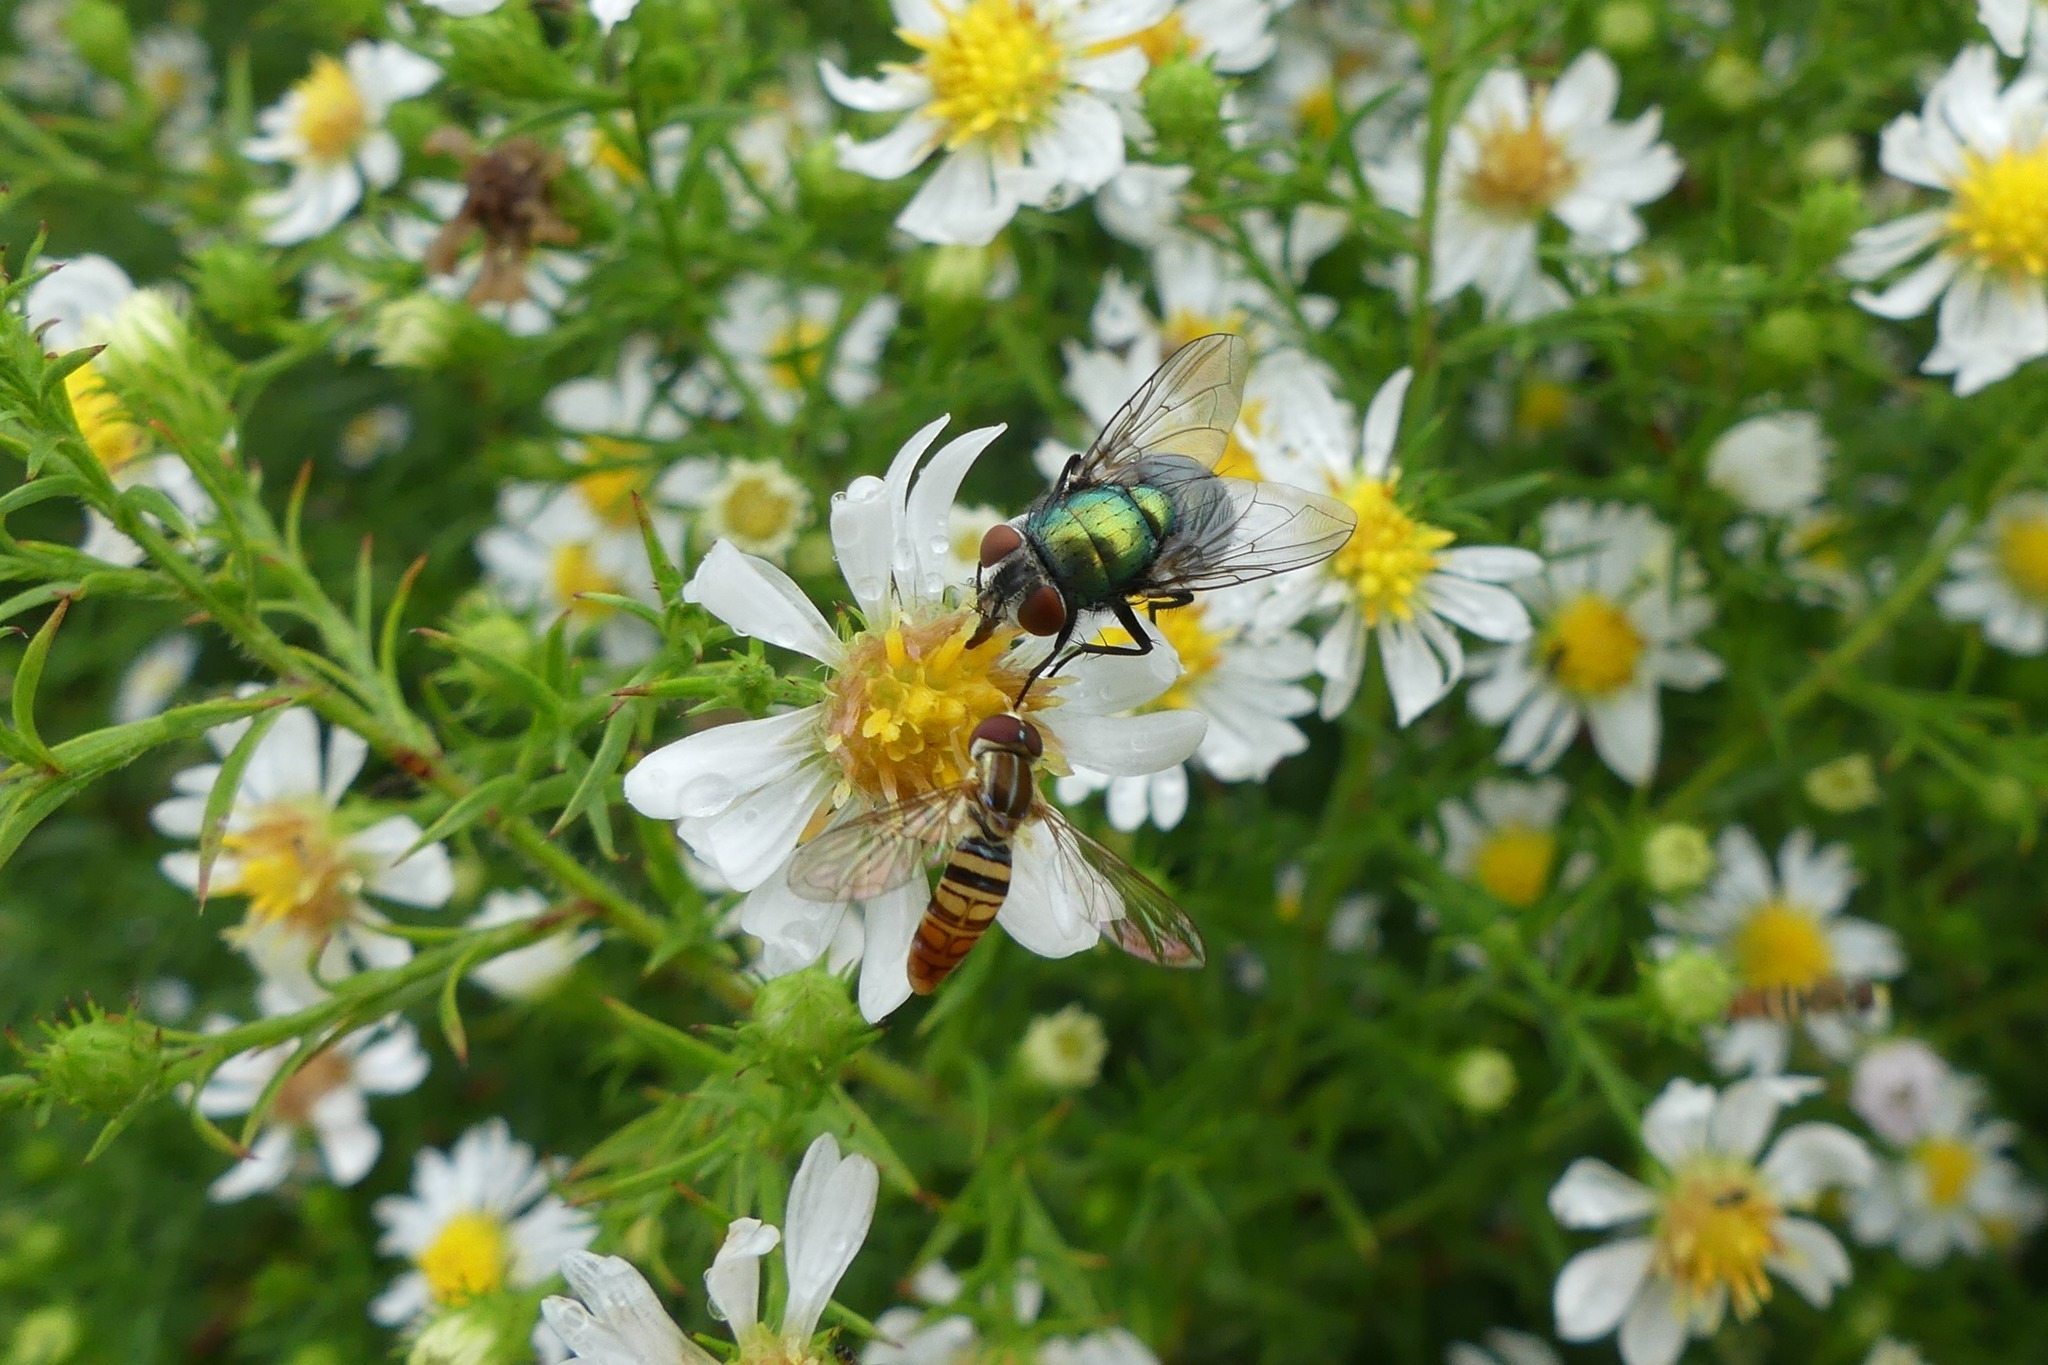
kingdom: Animalia
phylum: Arthropoda
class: Insecta
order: Diptera
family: Calliphoridae
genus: Lucilia
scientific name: Lucilia sericata
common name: Blow fly
